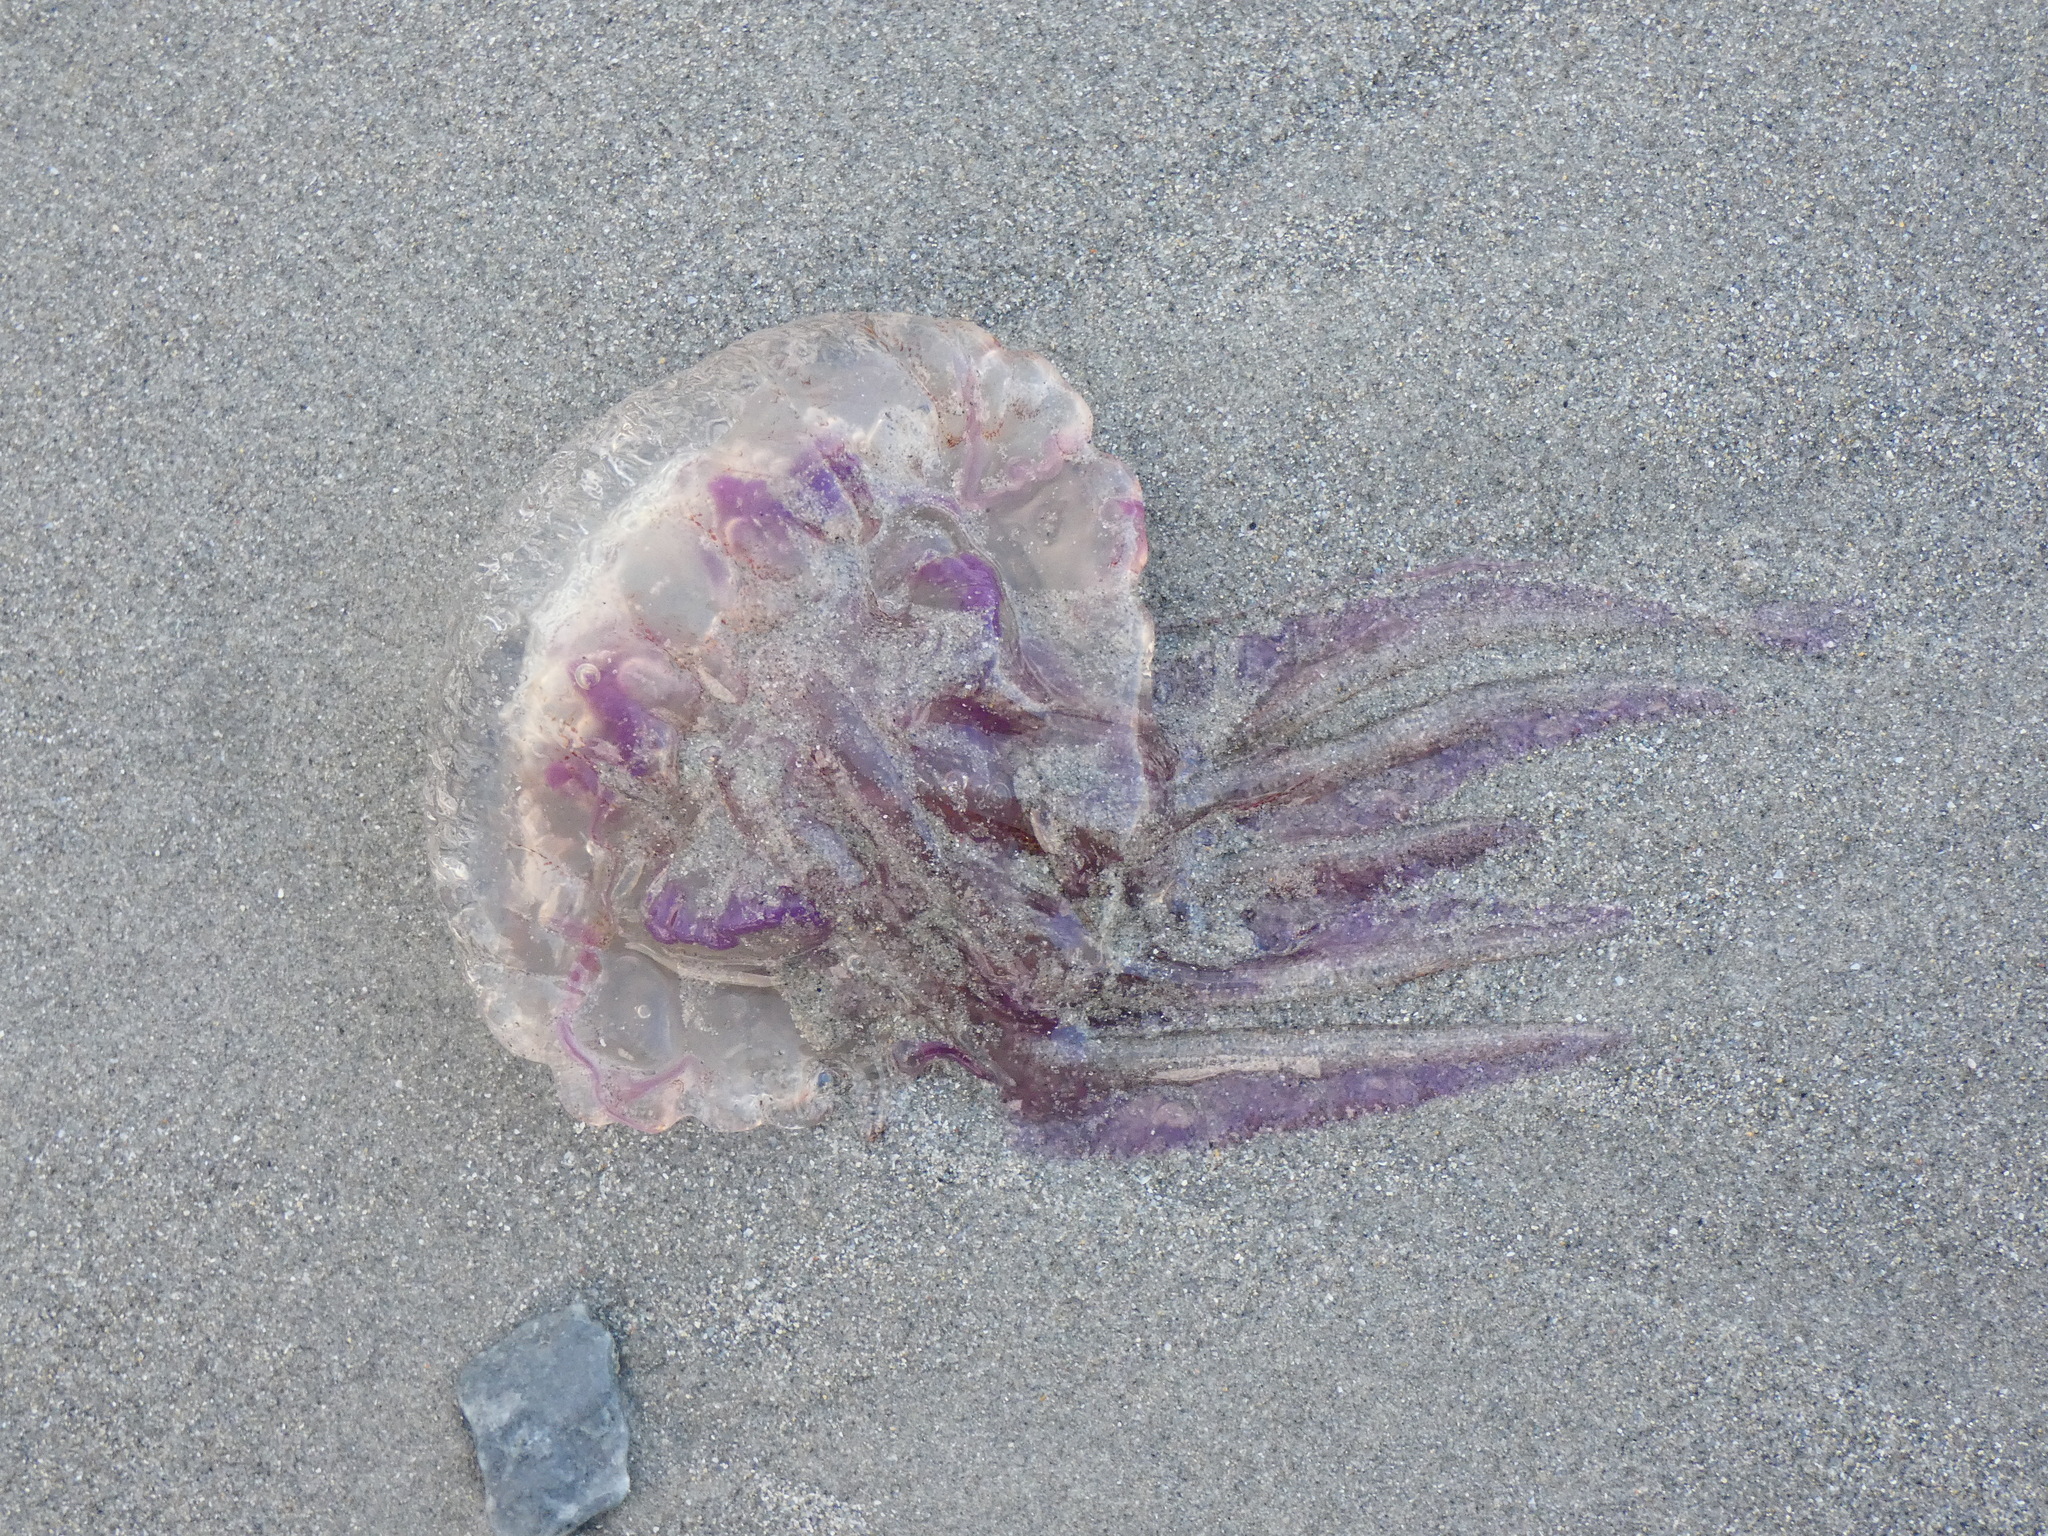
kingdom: Animalia
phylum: Cnidaria
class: Scyphozoa
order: Semaeostomeae
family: Pelagiidae
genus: Pelagia
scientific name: Pelagia noctiluca
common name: Mauve stinger
